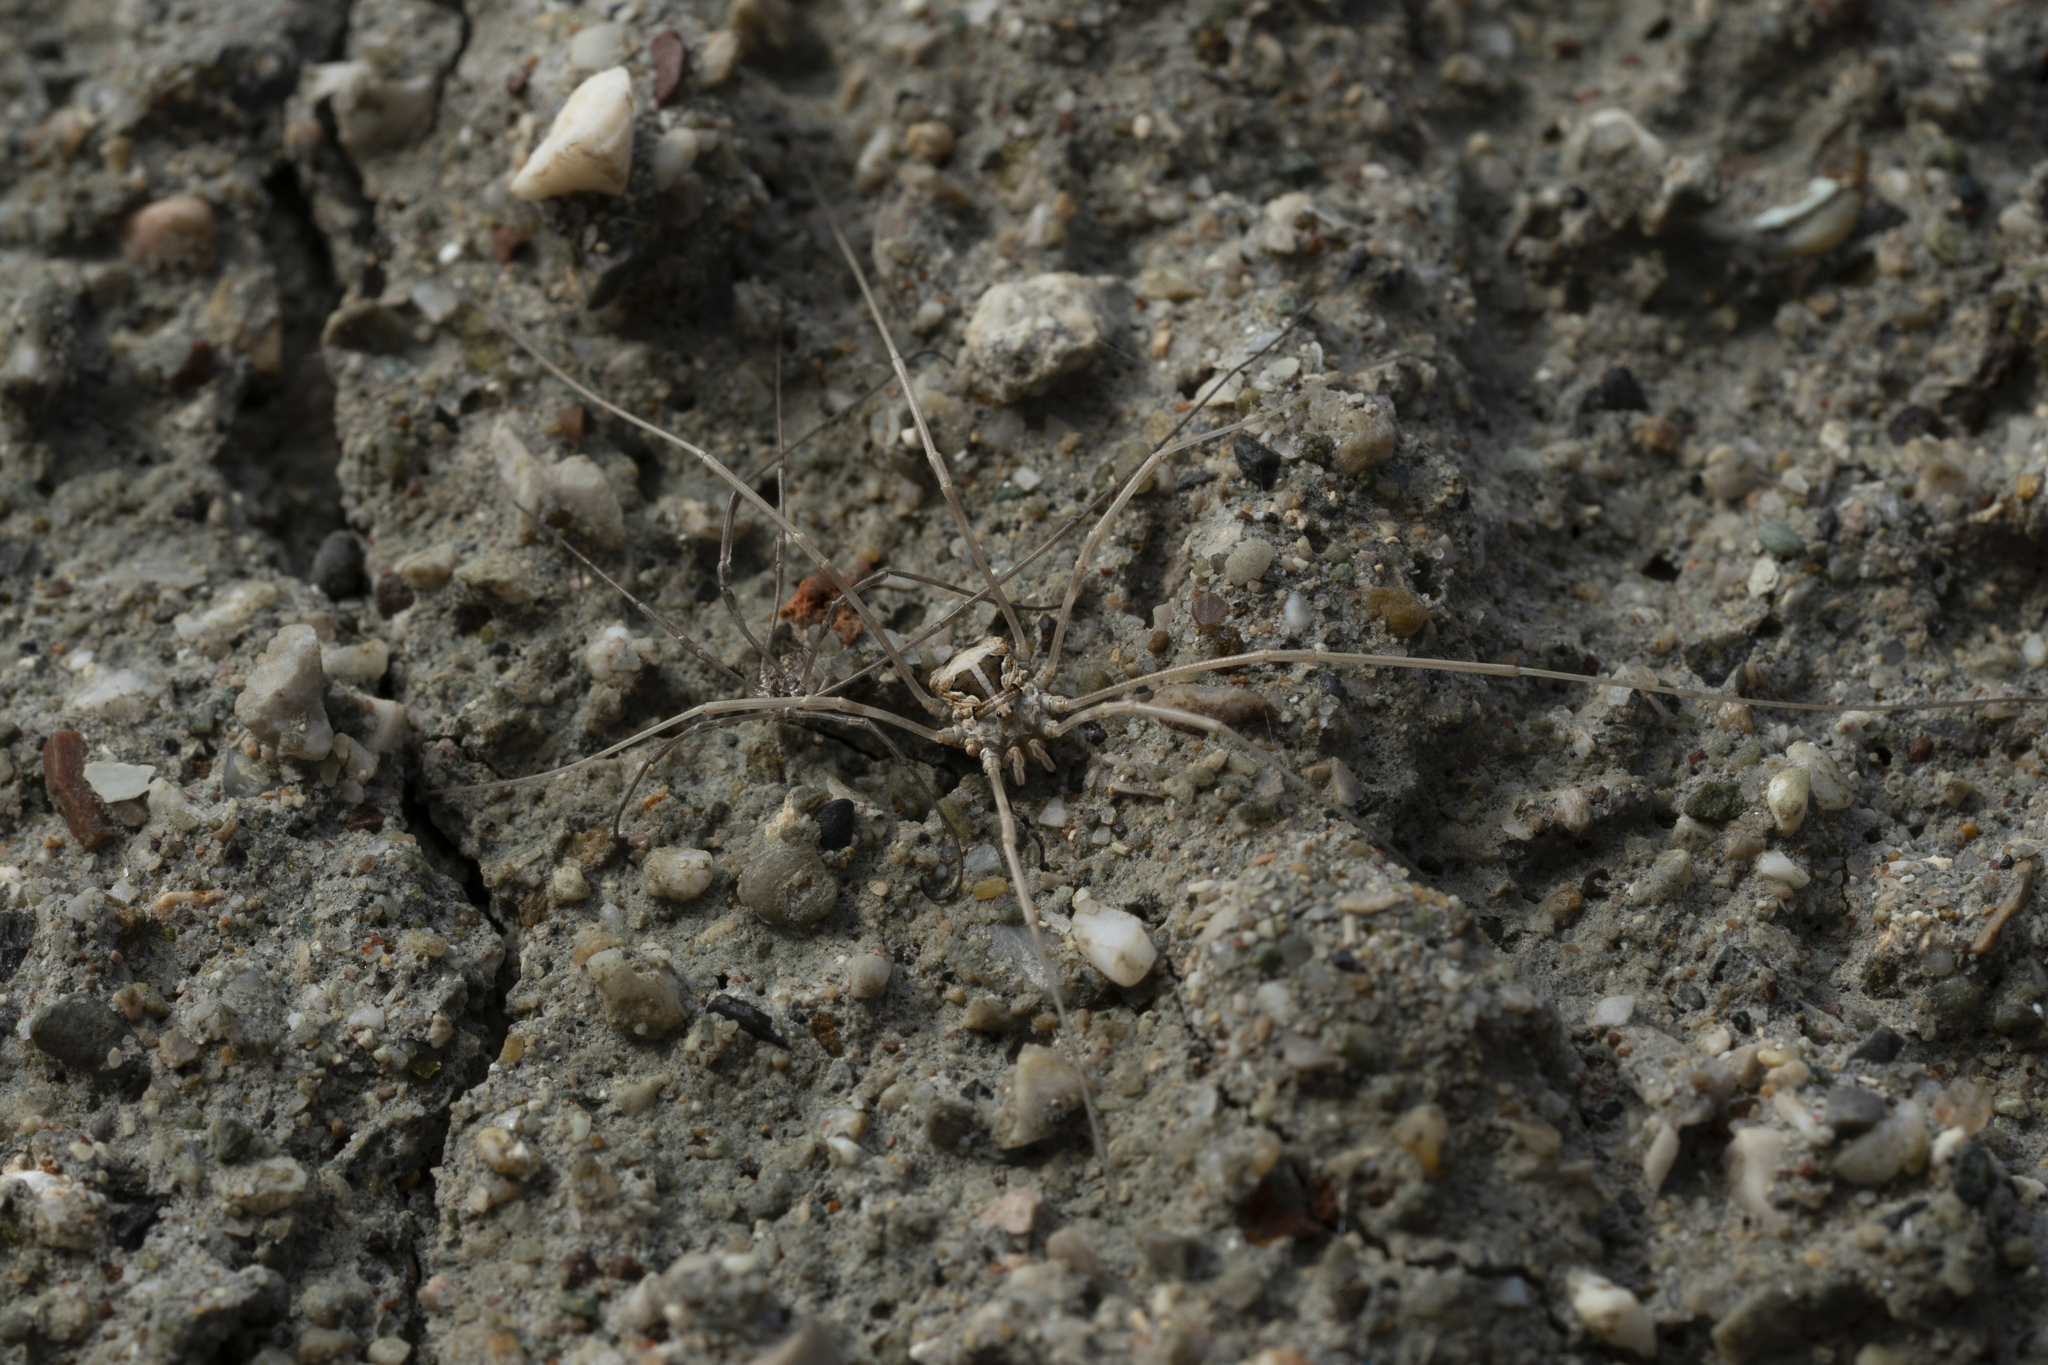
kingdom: Animalia
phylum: Arthropoda
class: Arachnida
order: Opiliones
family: Phalangiidae
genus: Metaphalangium
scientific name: Metaphalangium cirtanum
